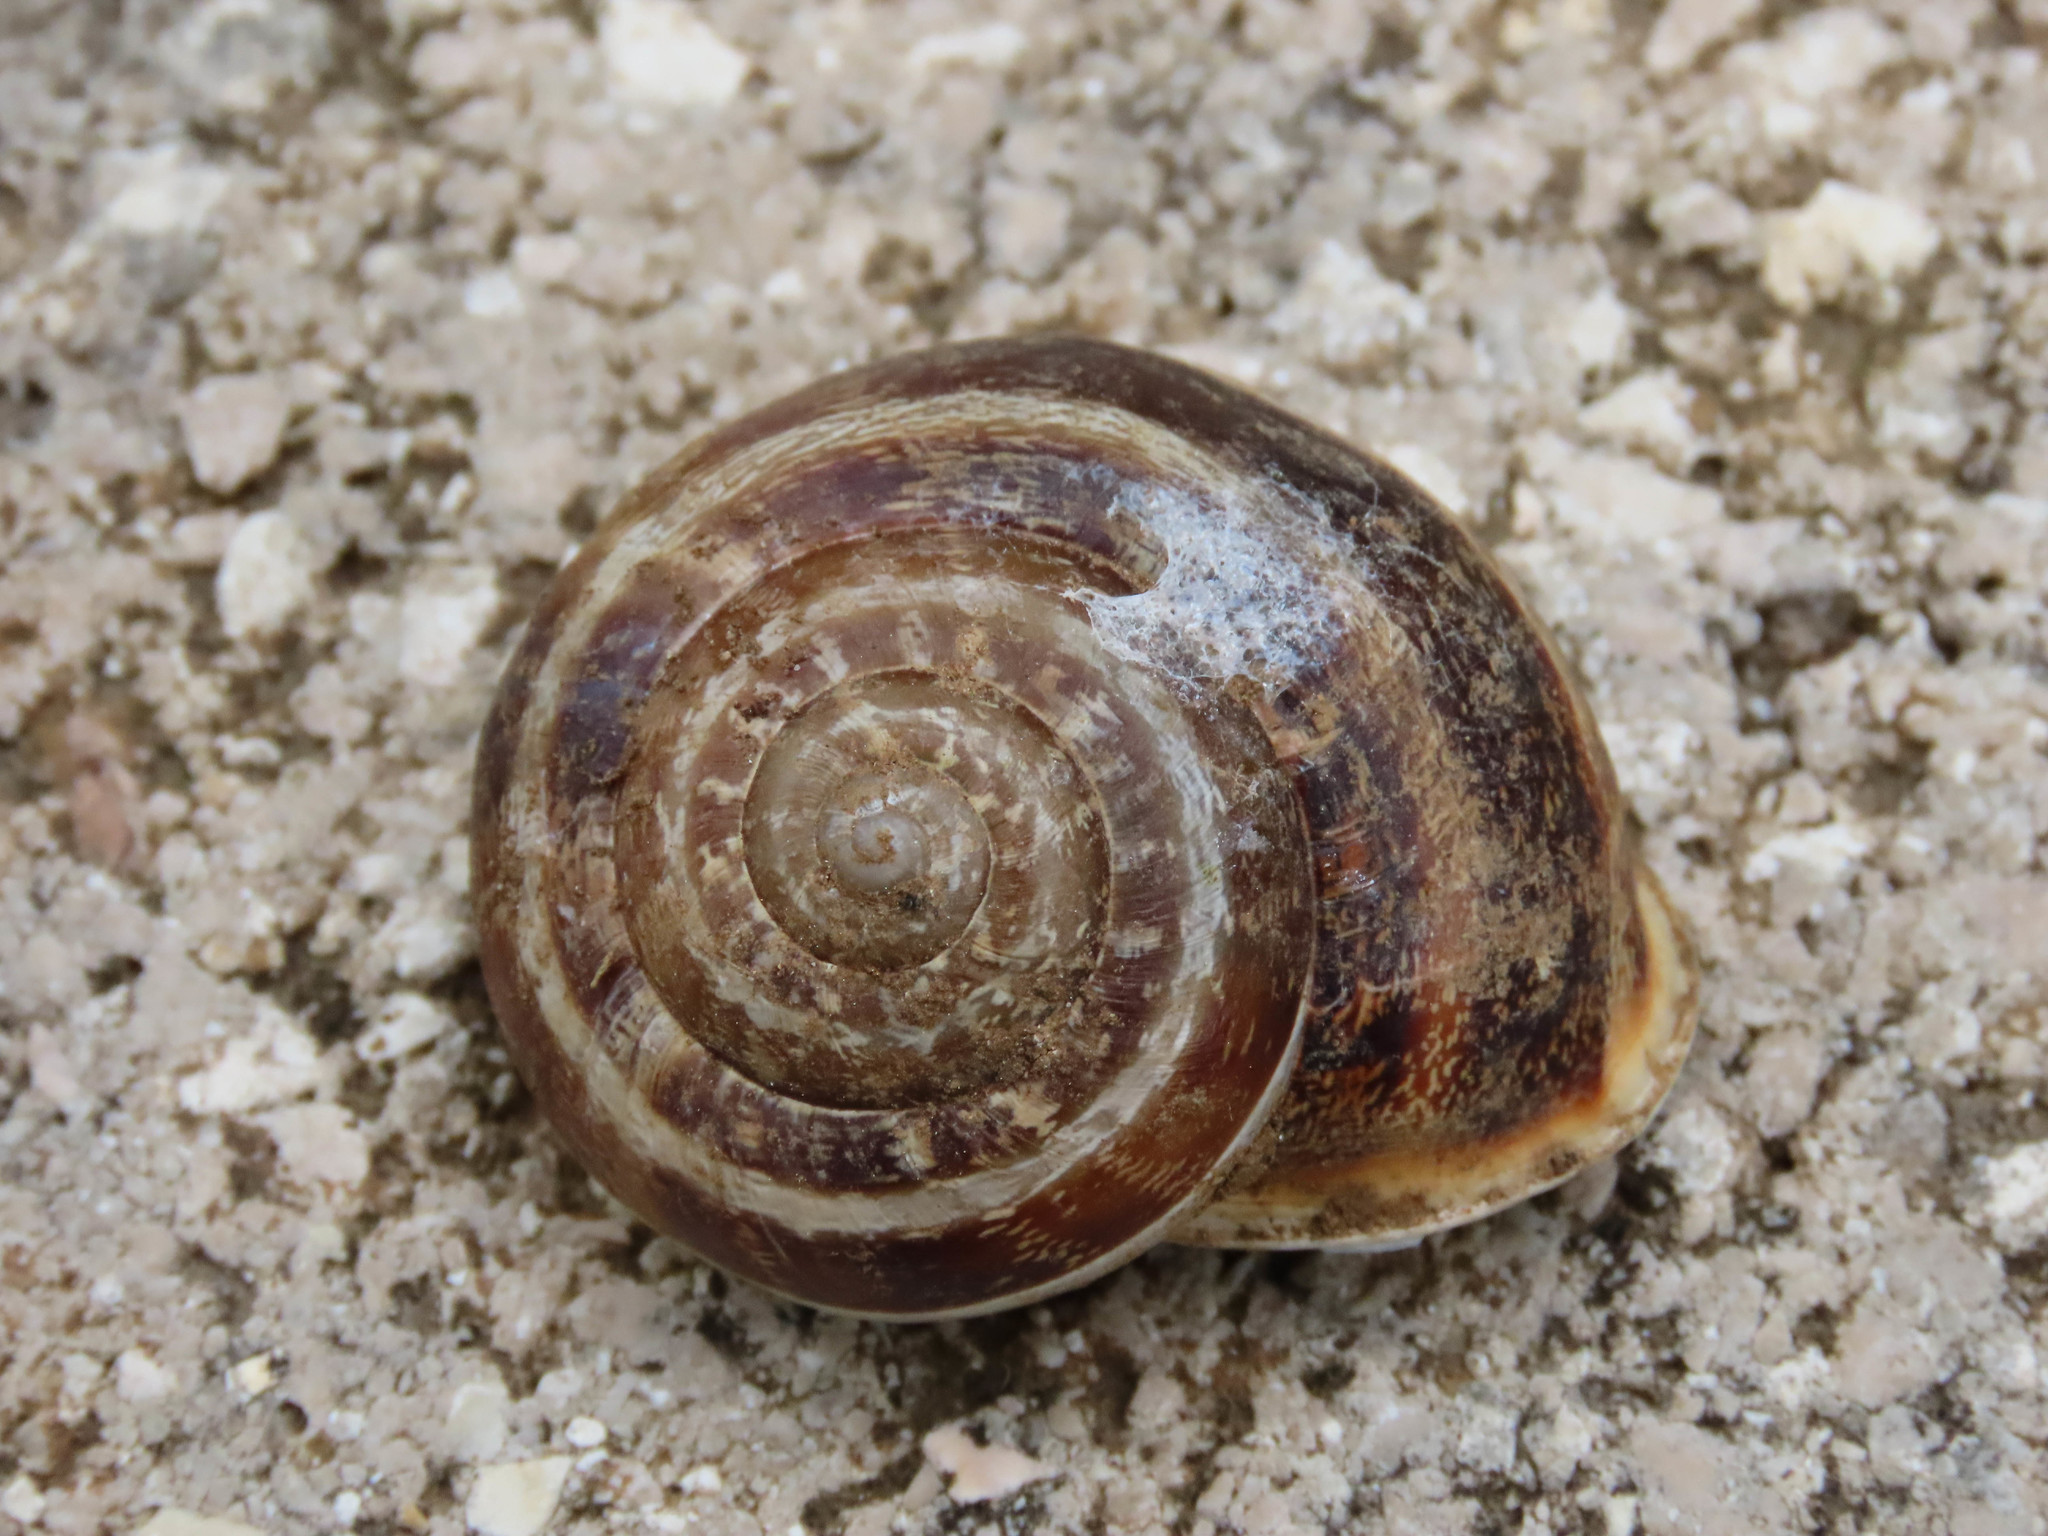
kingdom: Animalia
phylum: Mollusca
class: Gastropoda
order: Stylommatophora
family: Helicidae
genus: Eobania
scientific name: Eobania vermiculata
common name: Chocolateband snail
